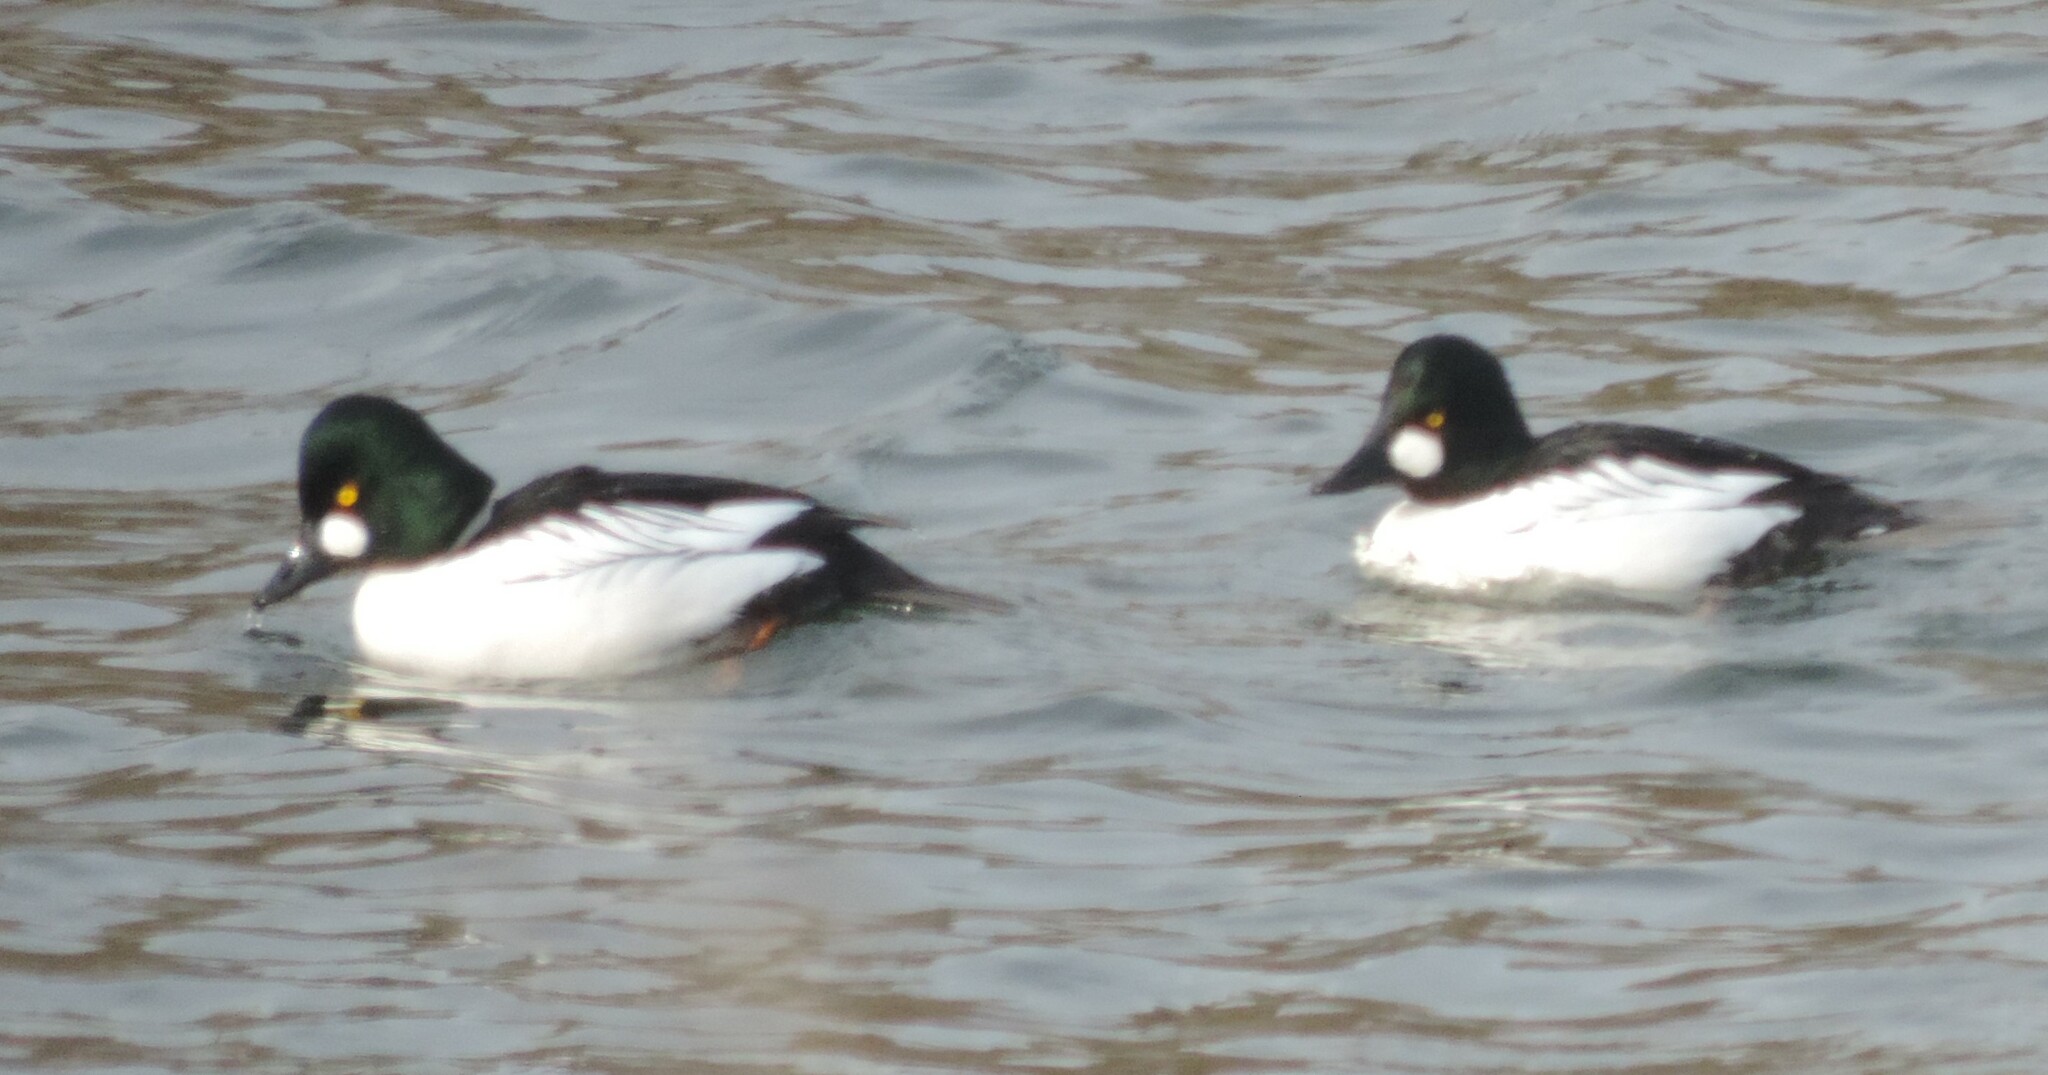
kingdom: Animalia
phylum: Chordata
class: Aves
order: Anseriformes
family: Anatidae
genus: Bucephala
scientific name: Bucephala clangula
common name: Common goldeneye
